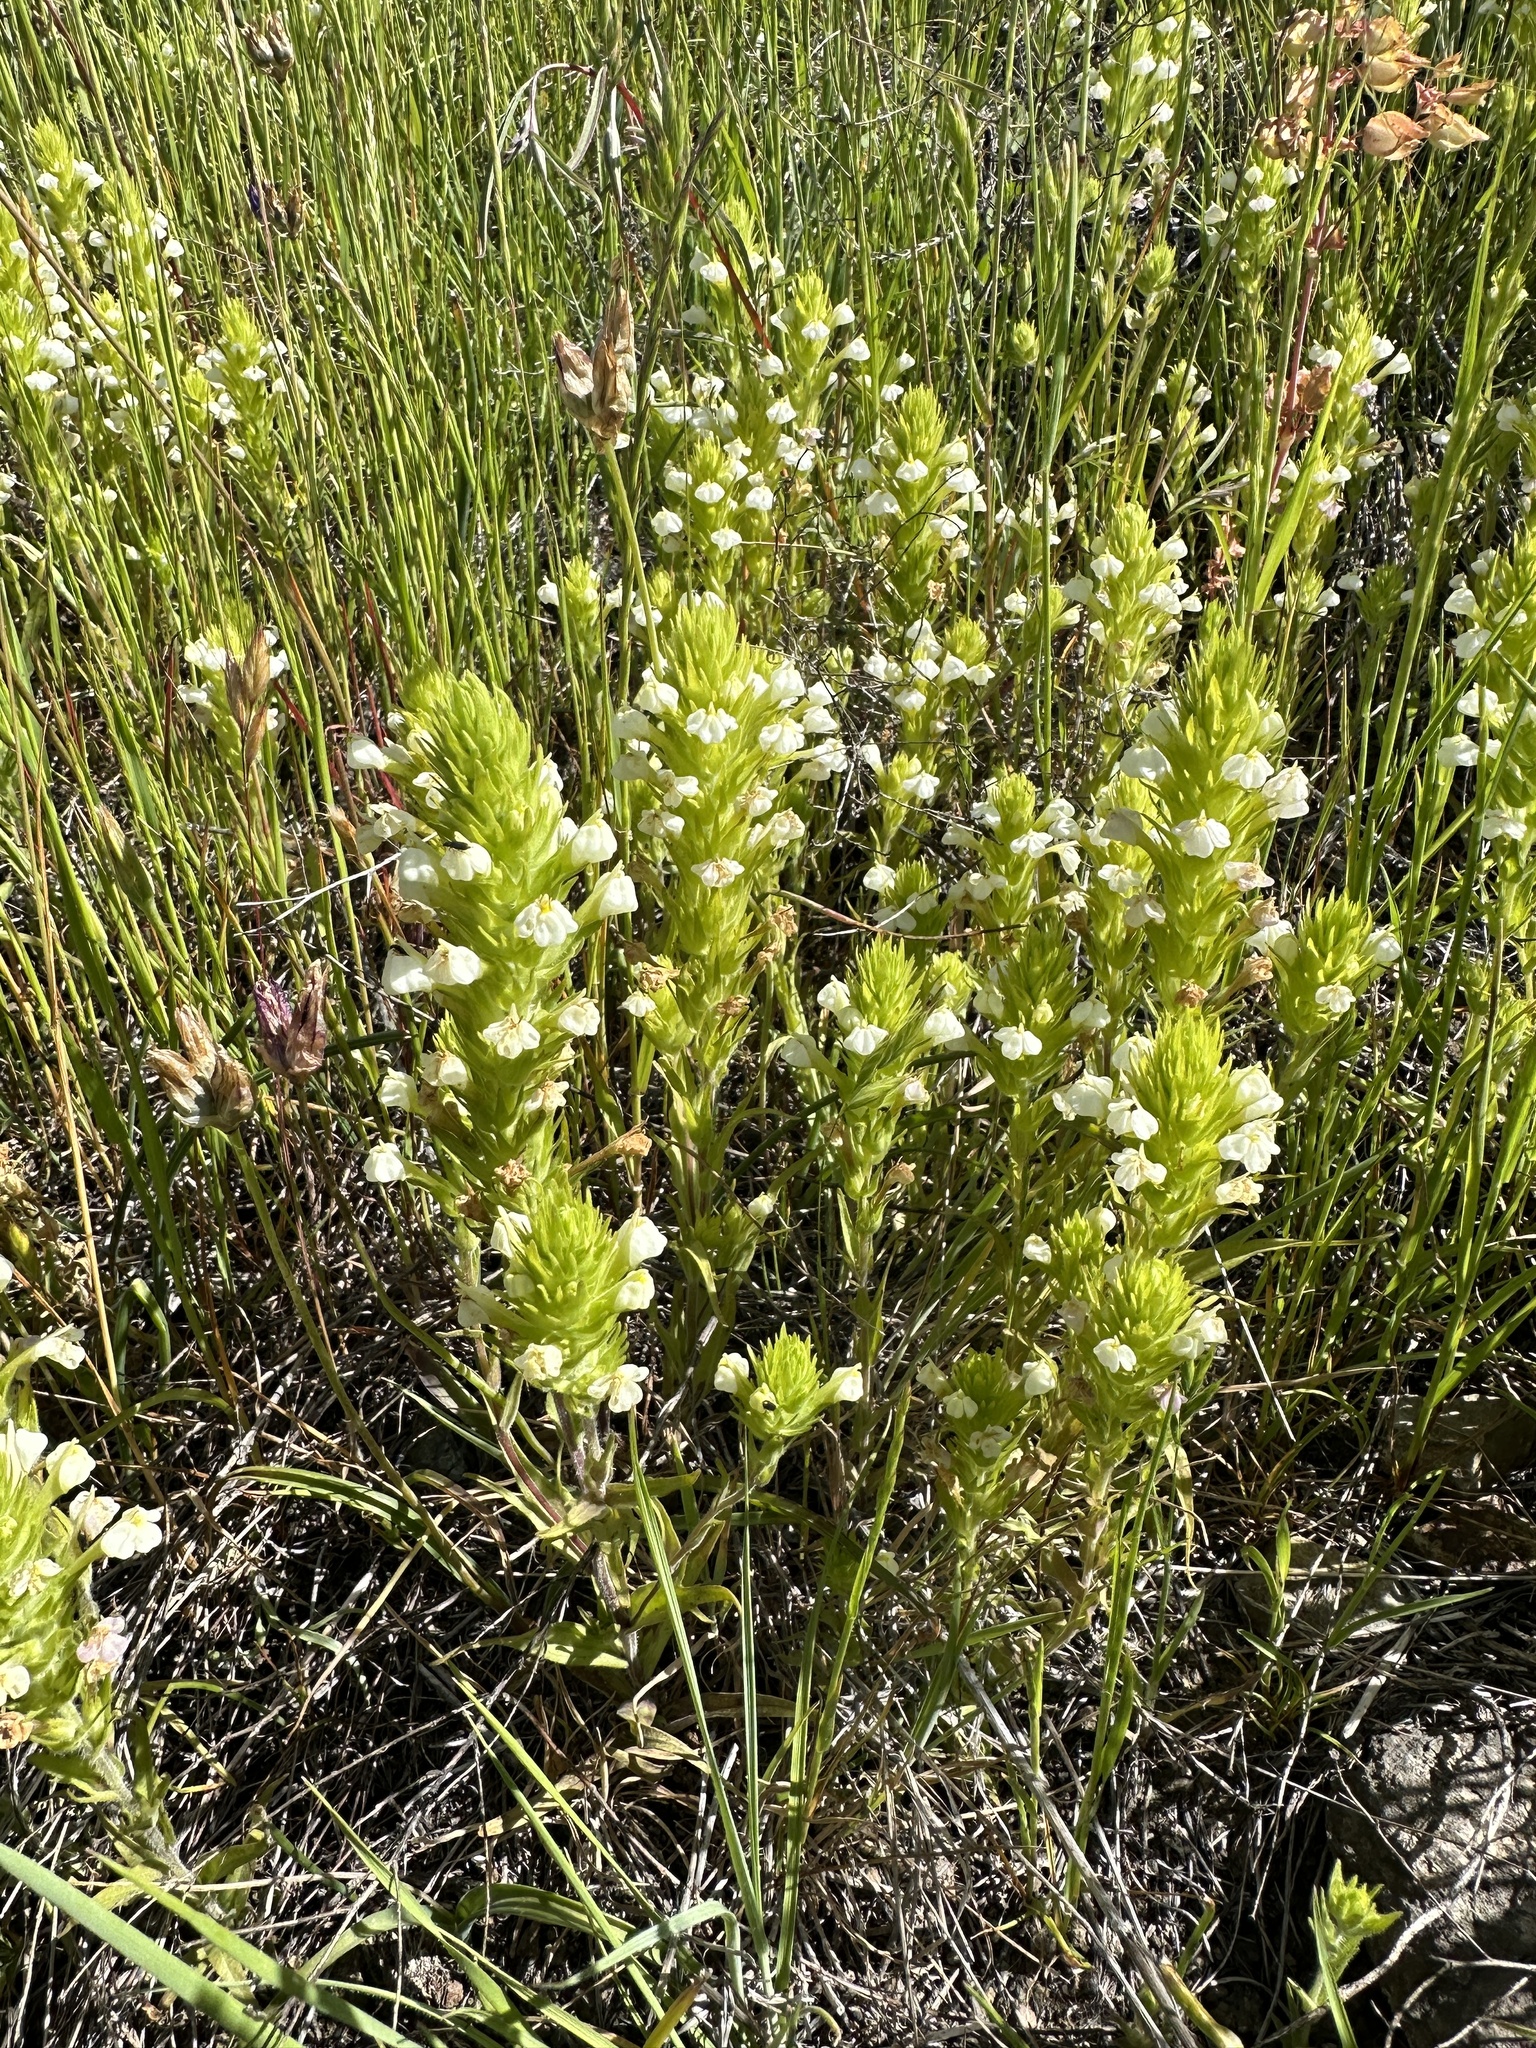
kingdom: Plantae
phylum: Tracheophyta
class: Magnoliopsida
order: Lamiales
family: Orobanchaceae
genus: Castilleja
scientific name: Castilleja rubicundula
